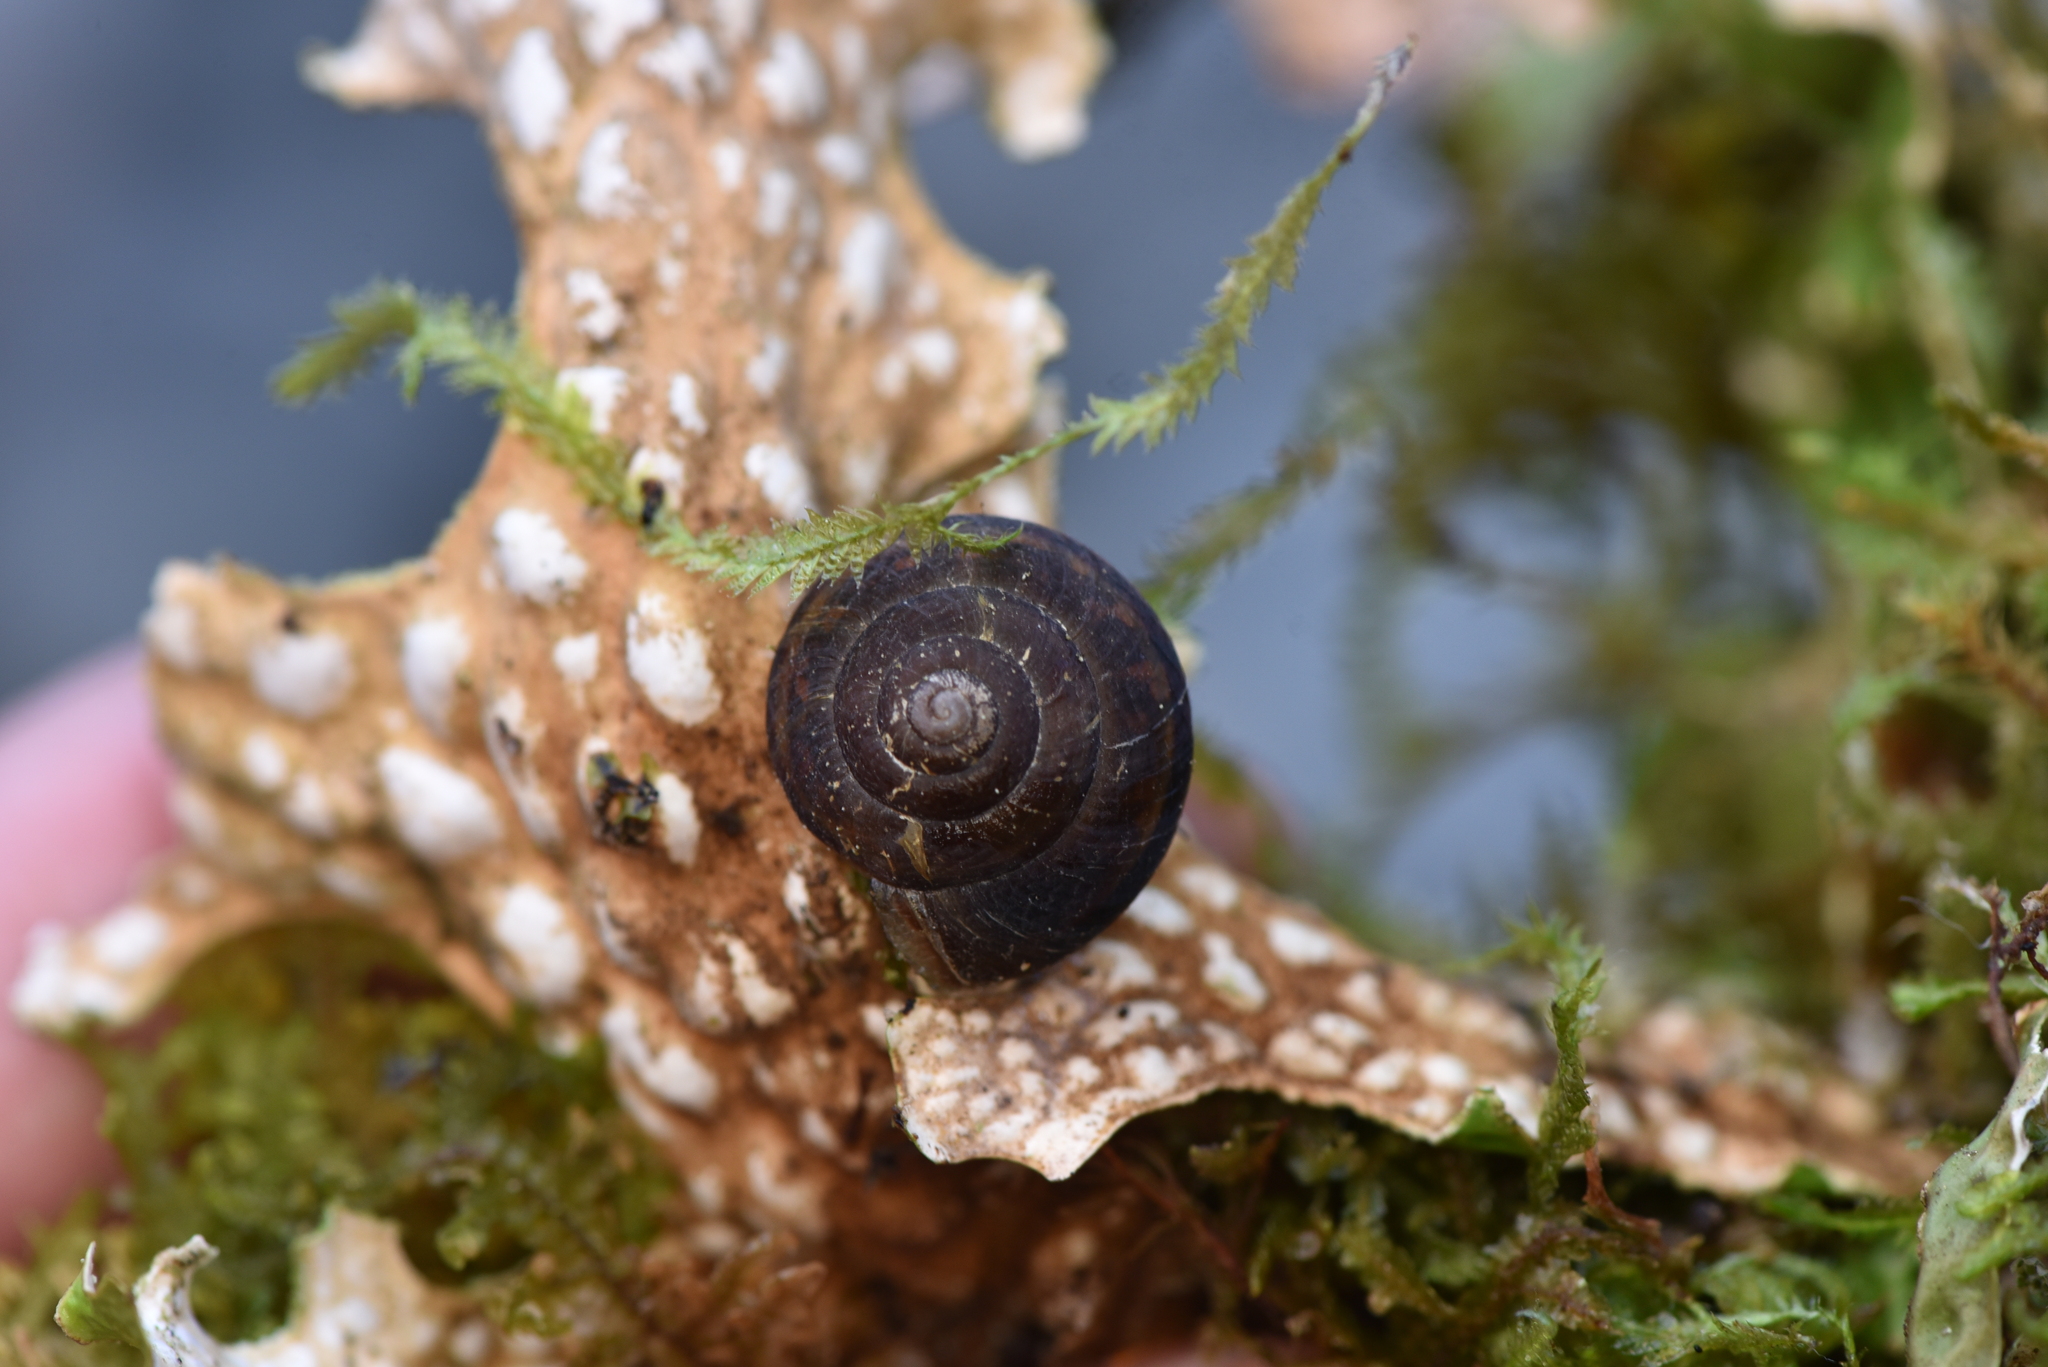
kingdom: Animalia
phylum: Mollusca
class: Gastropoda
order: Stylommatophora
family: Xanthonychidae
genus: Monadenia
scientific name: Monadenia fidelis
